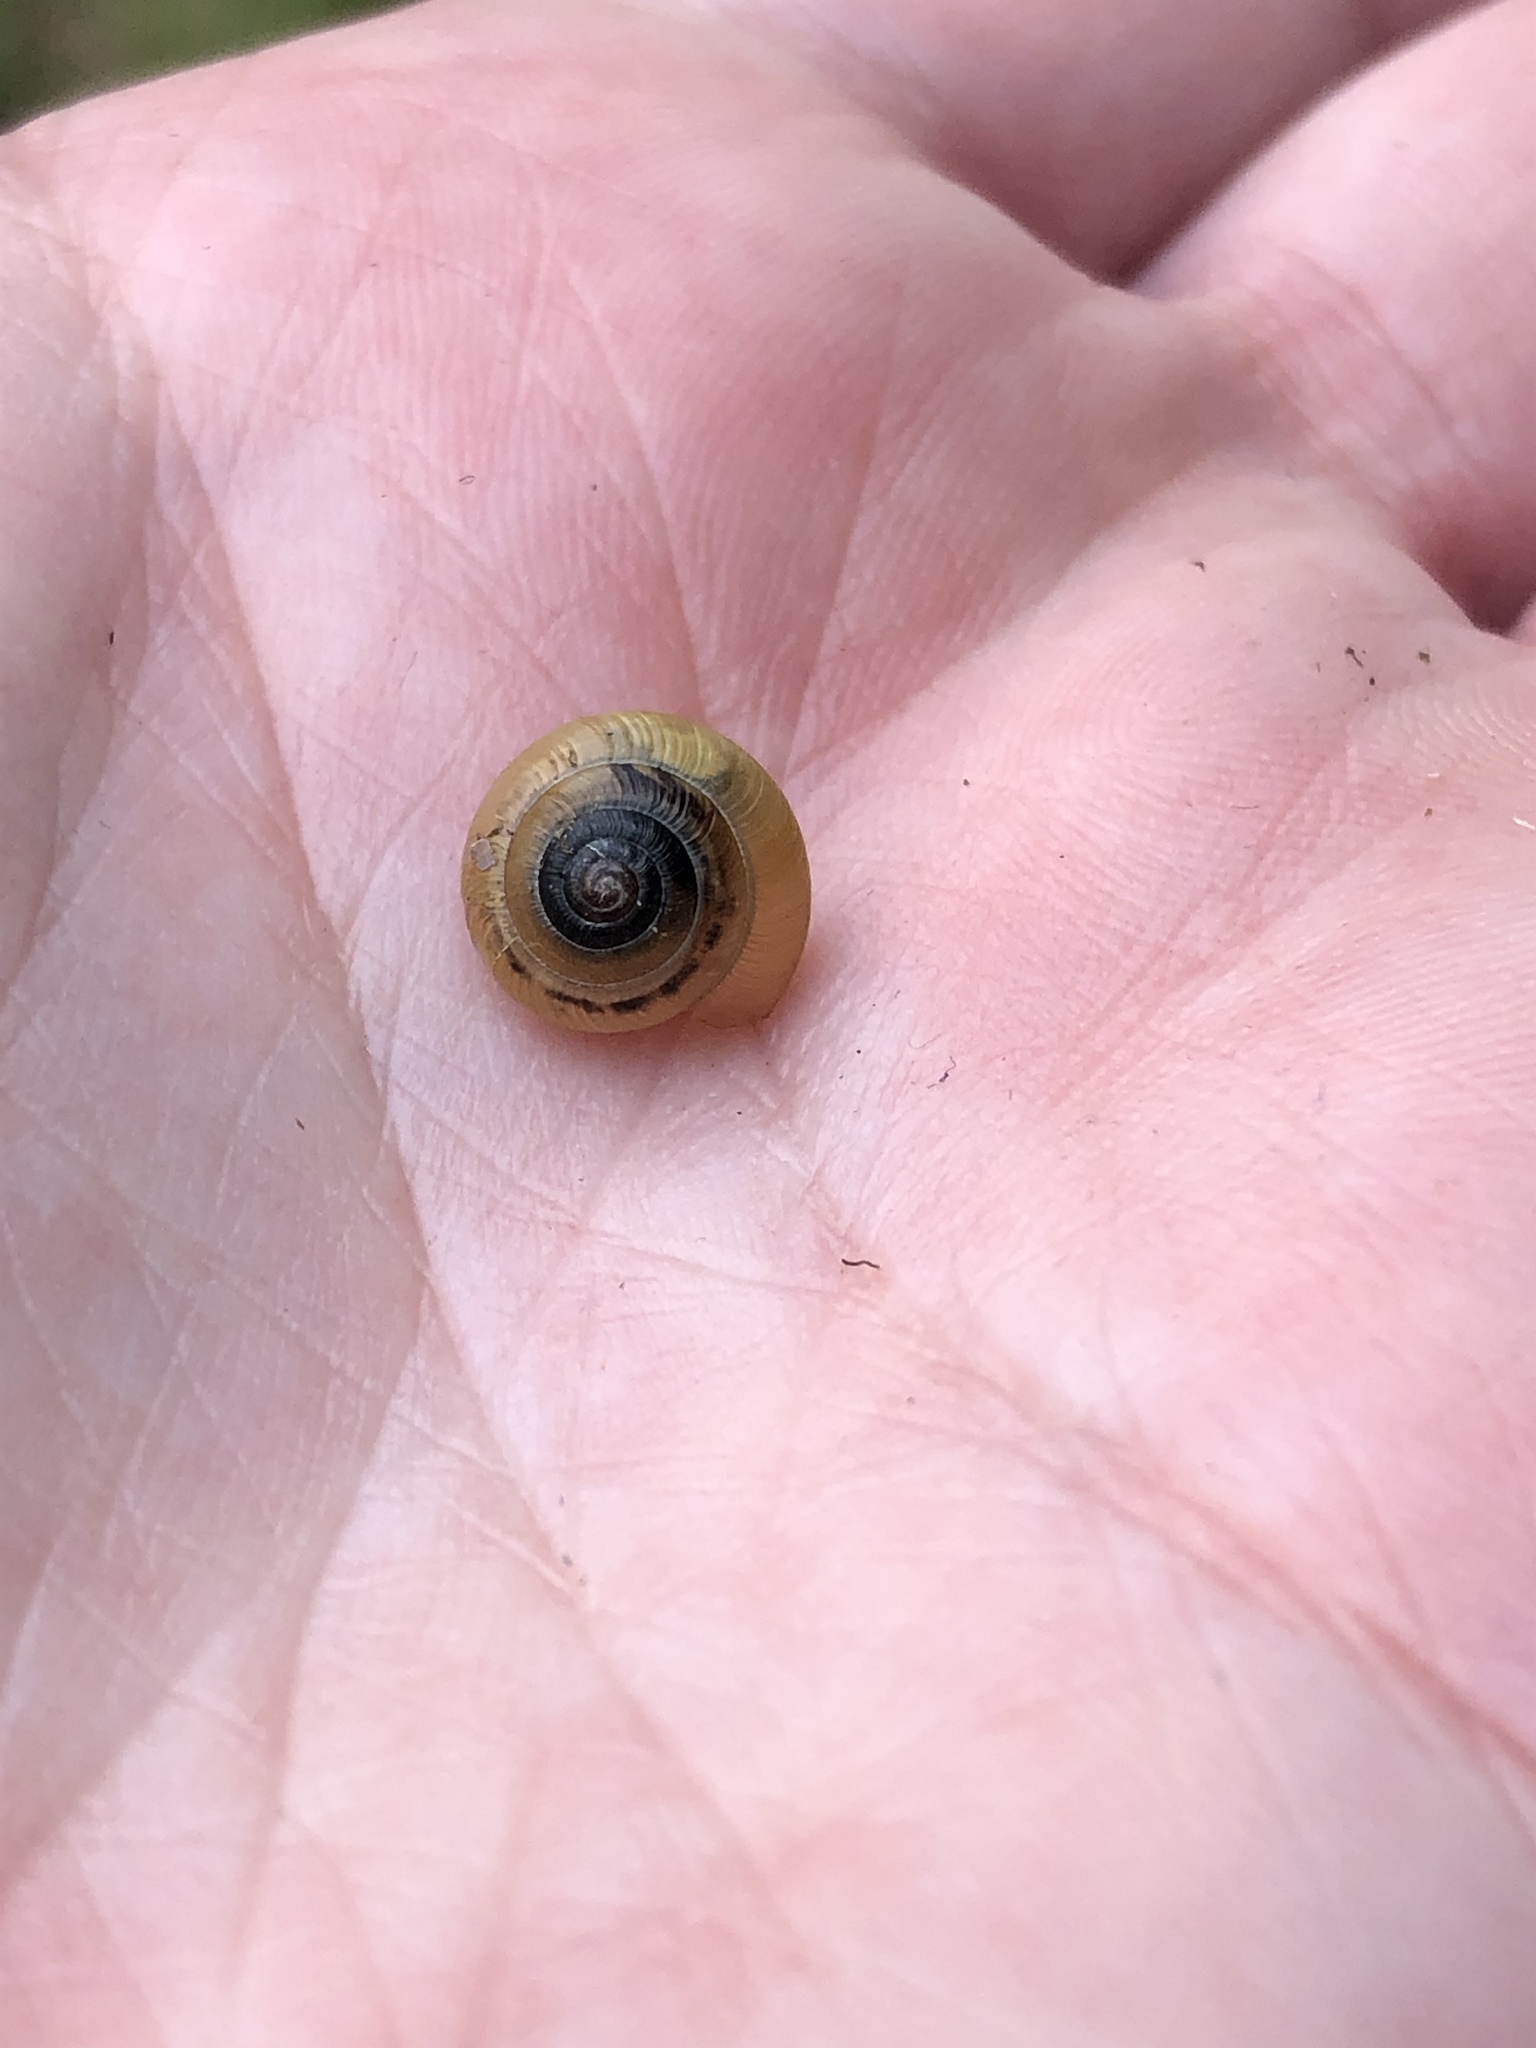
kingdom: Animalia
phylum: Mollusca
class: Gastropoda
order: Stylommatophora
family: Gastrodontidae
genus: Ventridens
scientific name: Ventridens ligera
